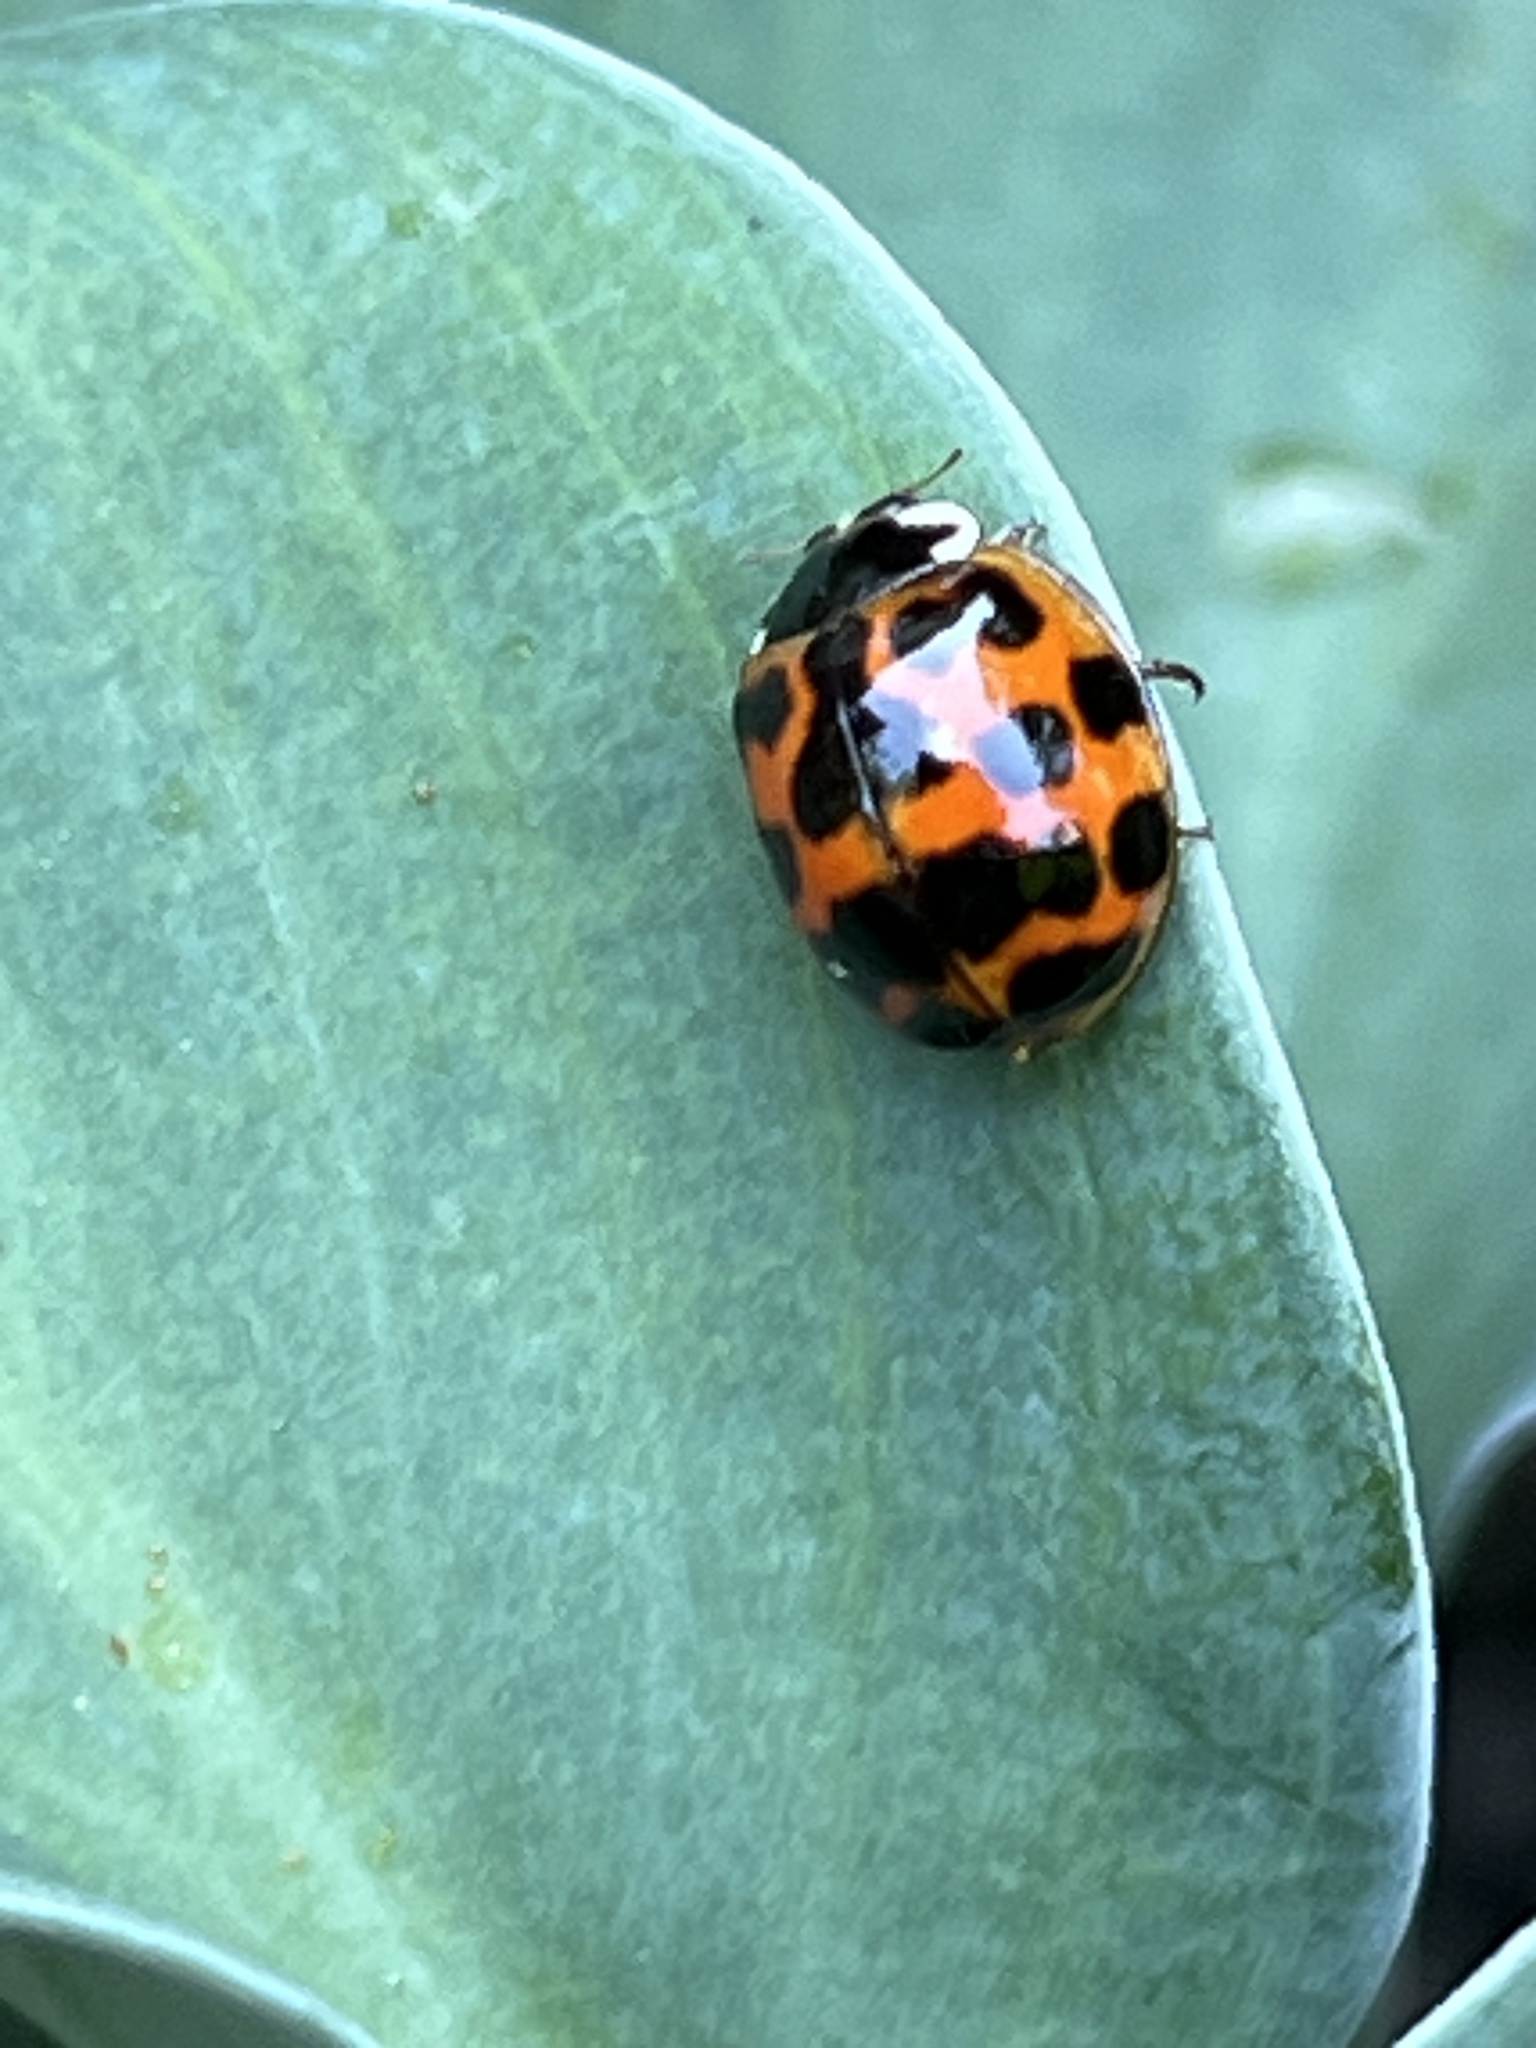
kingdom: Animalia
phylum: Arthropoda
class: Insecta
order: Coleoptera
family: Coccinellidae
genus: Harmonia
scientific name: Harmonia axyridis
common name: Harlequin ladybird
